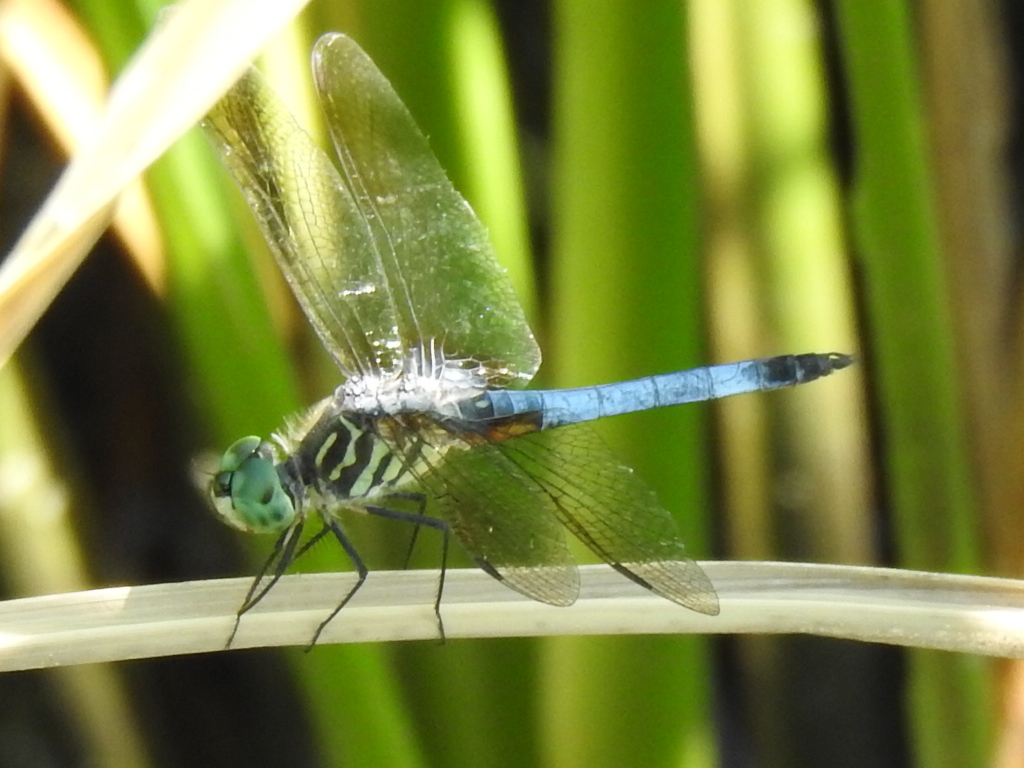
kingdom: Animalia
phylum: Arthropoda
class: Insecta
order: Odonata
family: Libellulidae
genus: Pachydiplax
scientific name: Pachydiplax longipennis
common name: Blue dasher
